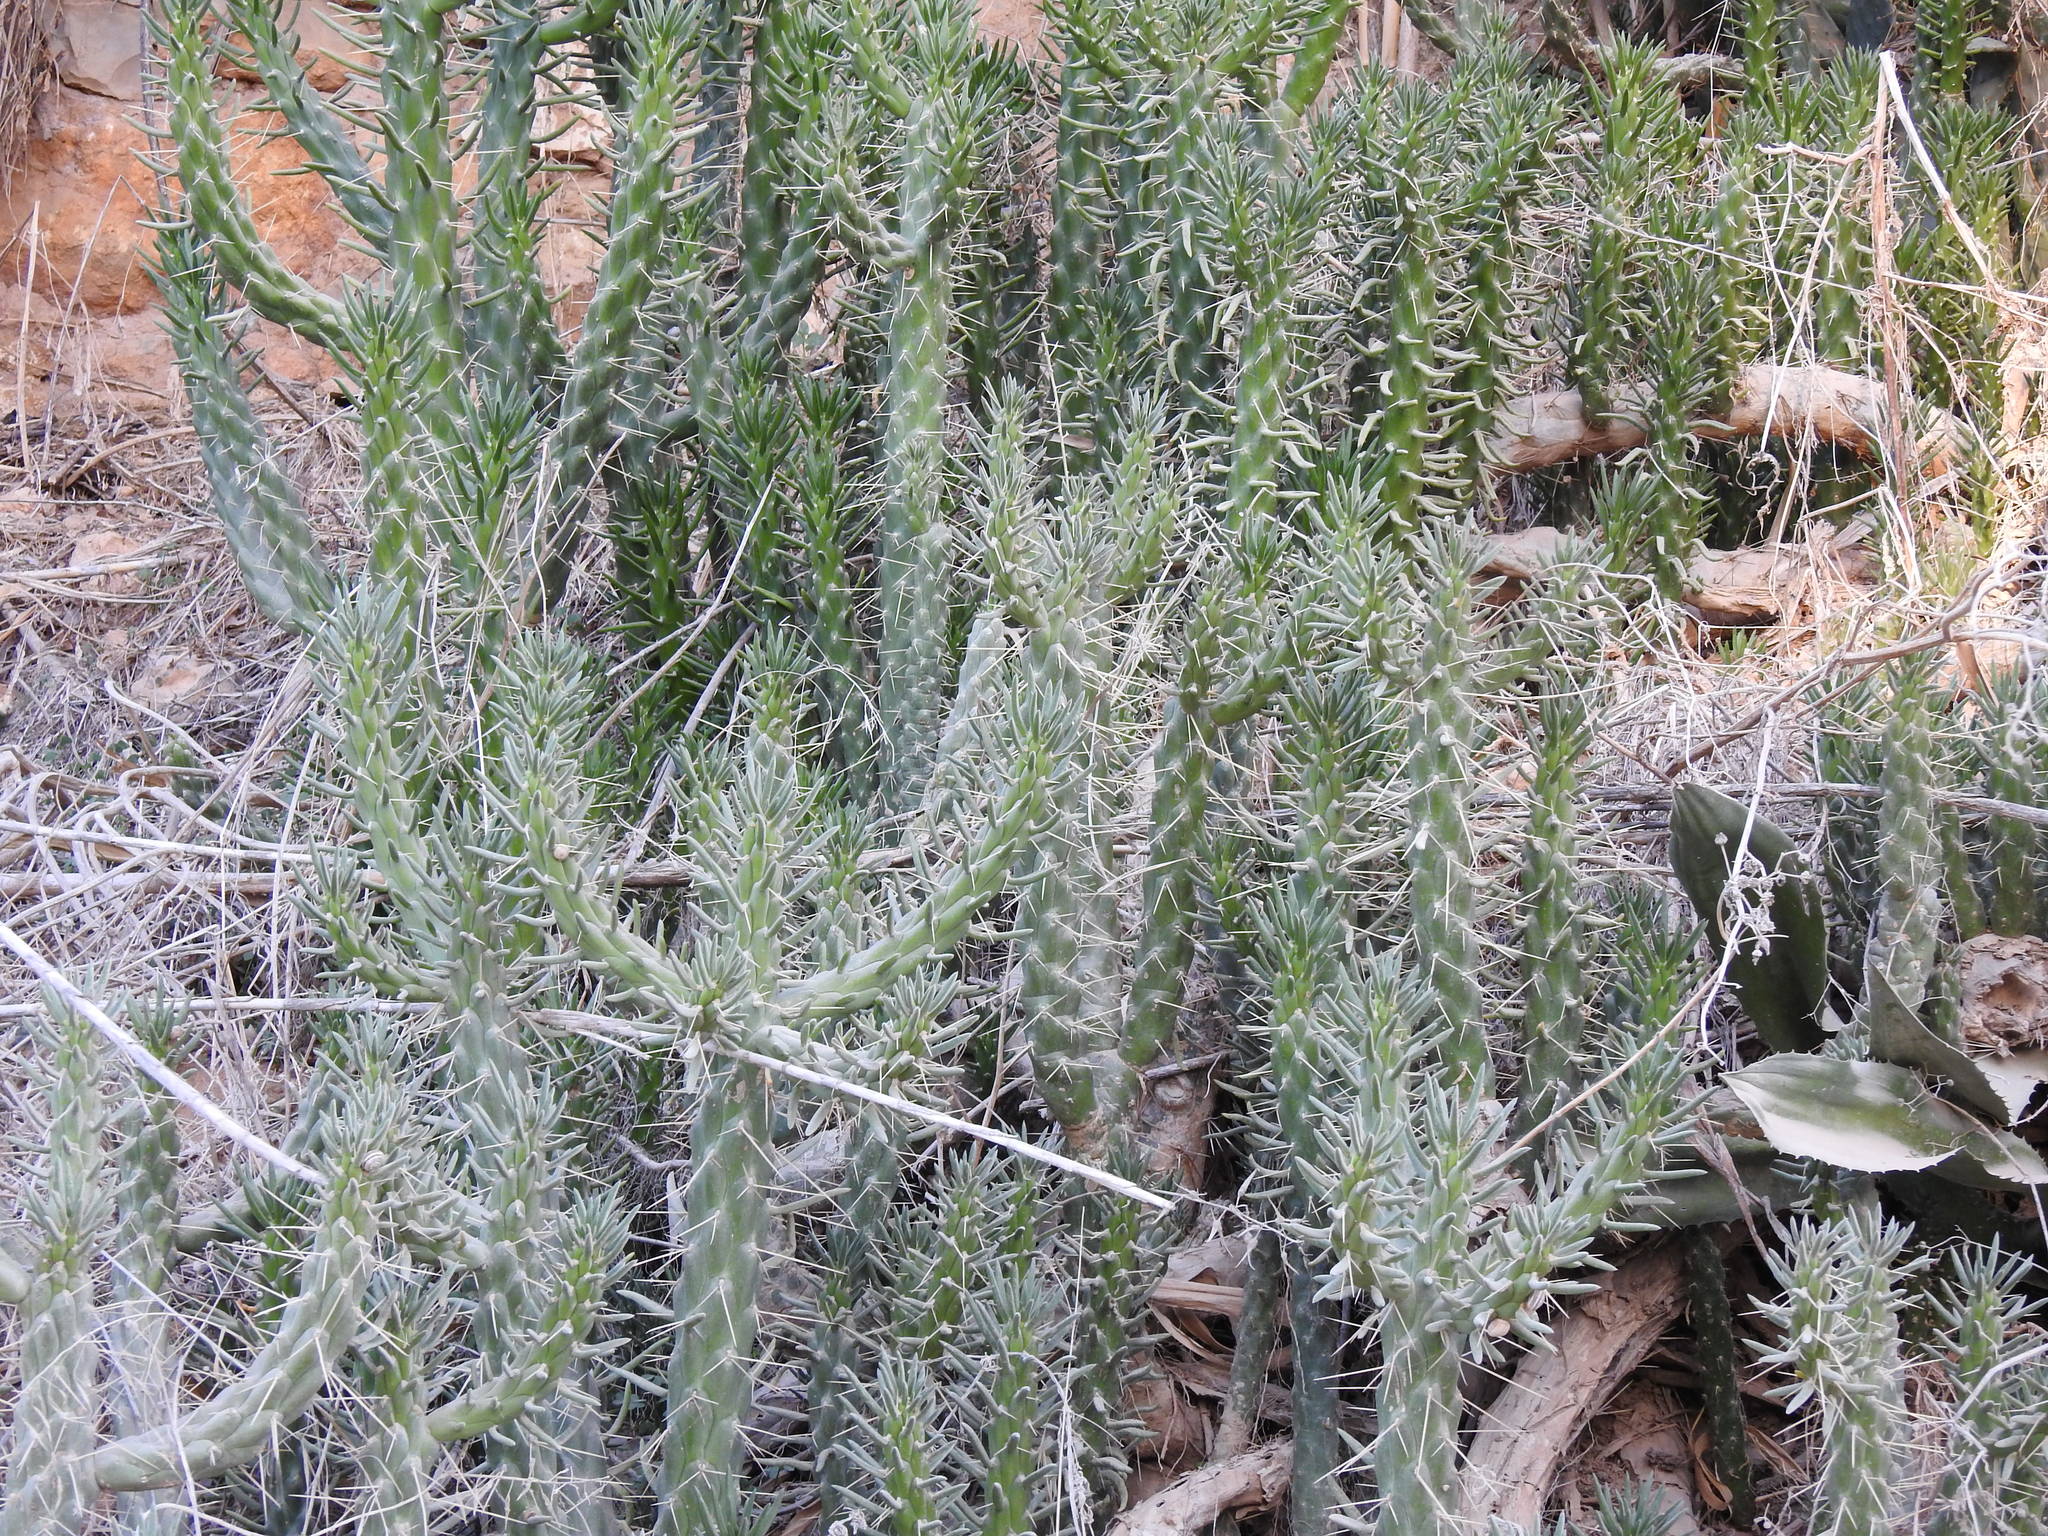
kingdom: Plantae
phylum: Tracheophyta
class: Magnoliopsida
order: Caryophyllales
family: Cactaceae
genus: Austrocylindropuntia
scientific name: Austrocylindropuntia subulata
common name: Eve's needle cactus
